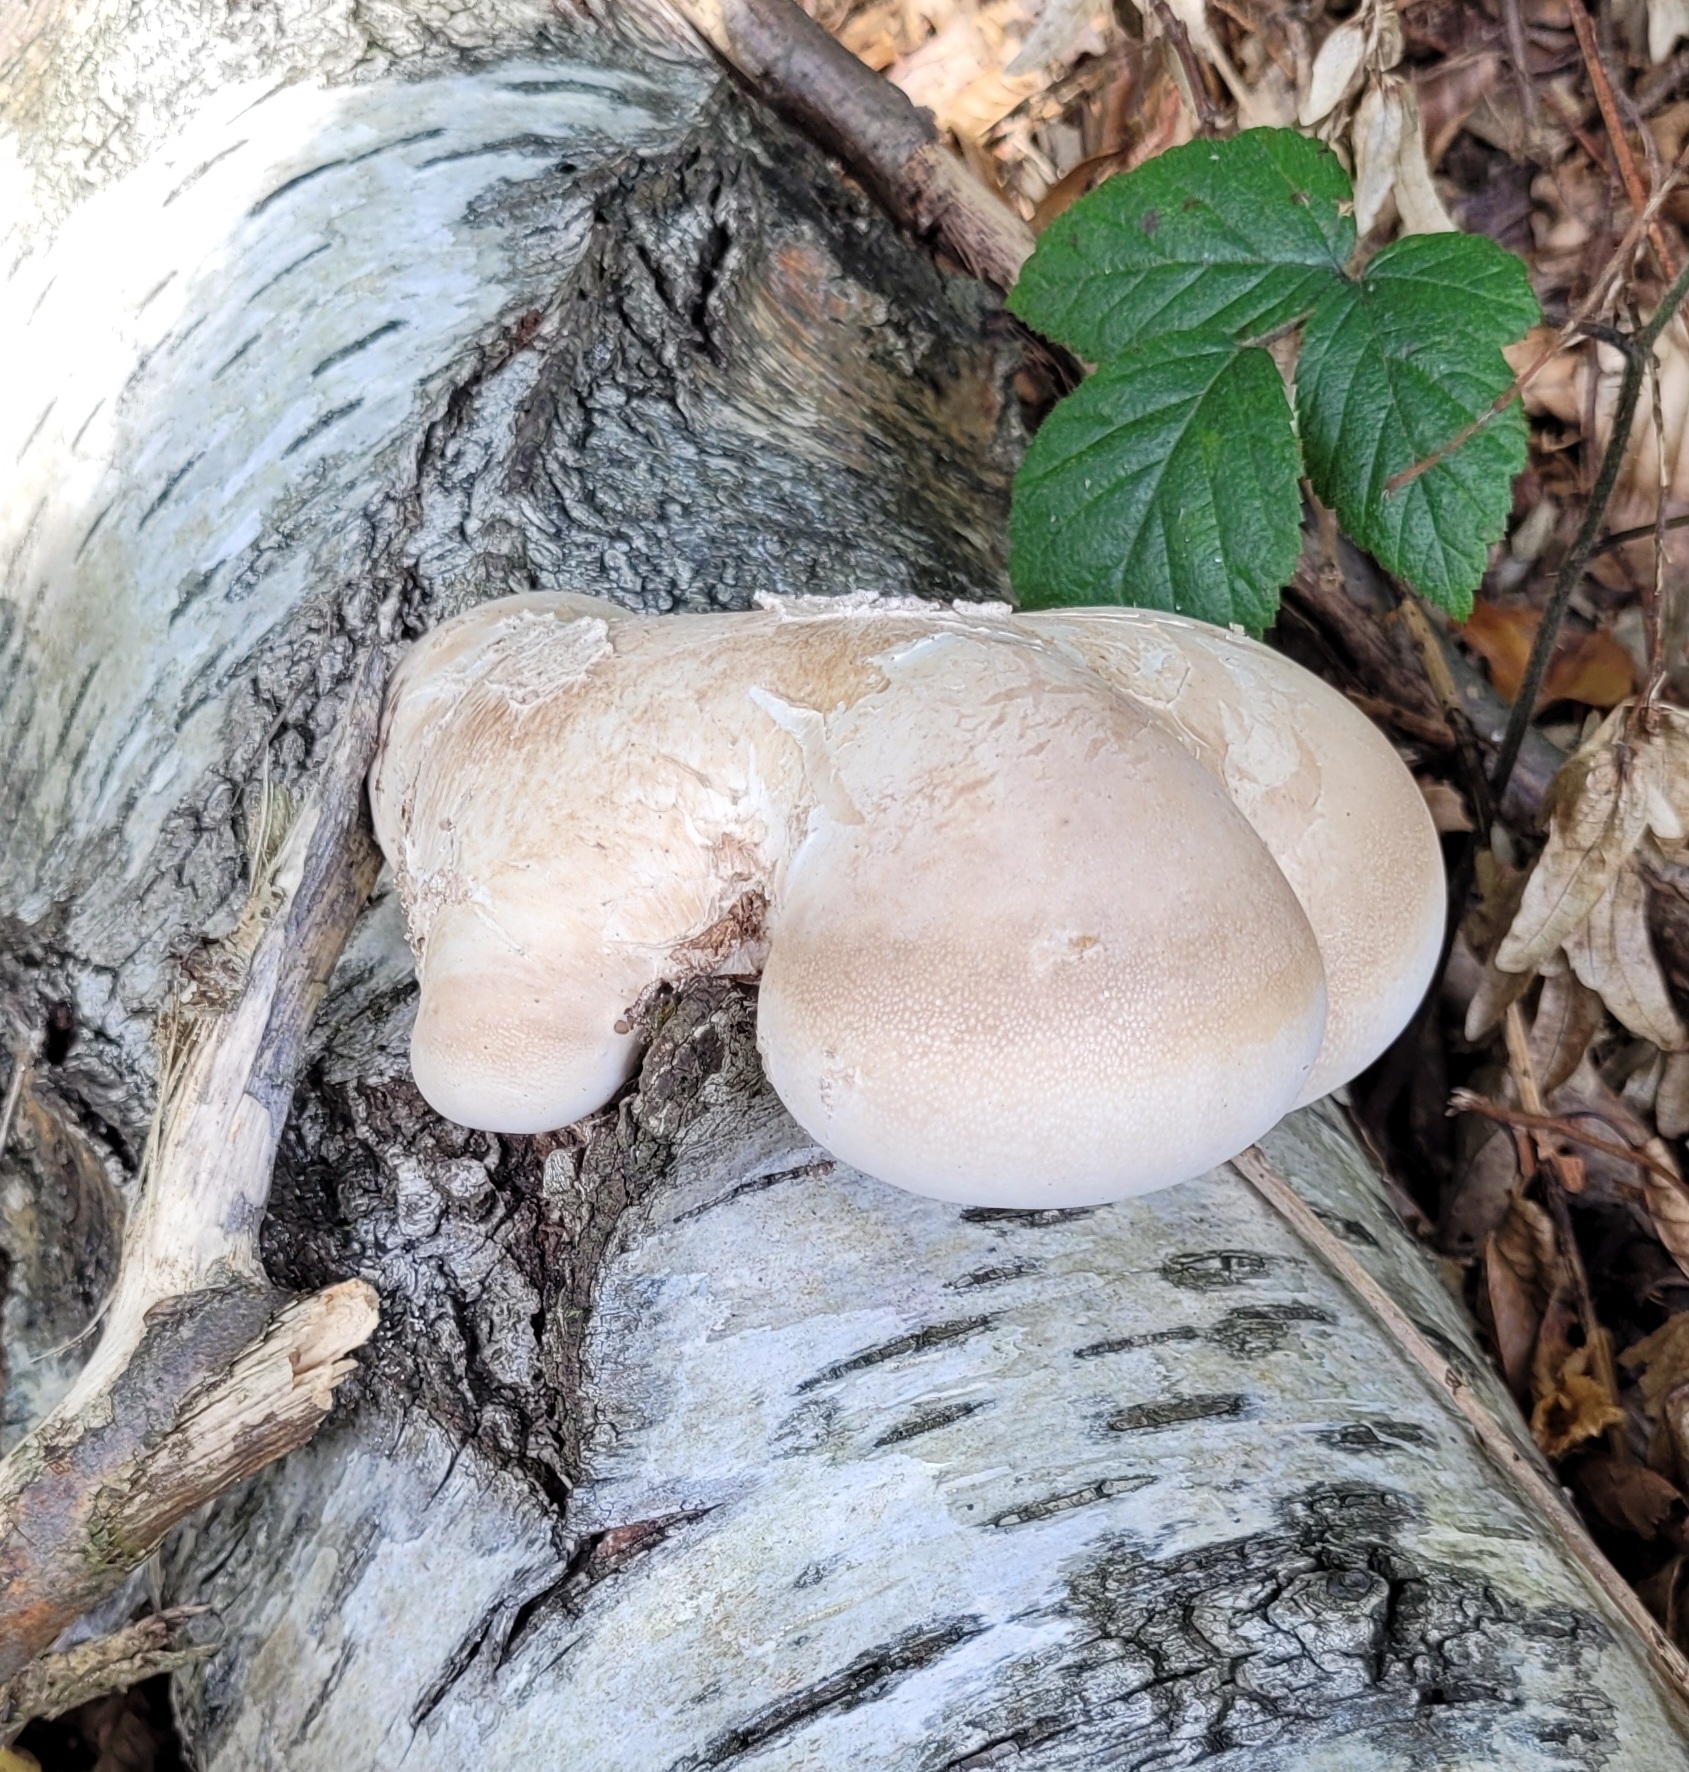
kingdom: Fungi
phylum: Basidiomycota
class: Agaricomycetes
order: Polyporales
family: Fomitopsidaceae
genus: Fomitopsis
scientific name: Fomitopsis betulina
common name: Birch polypore
